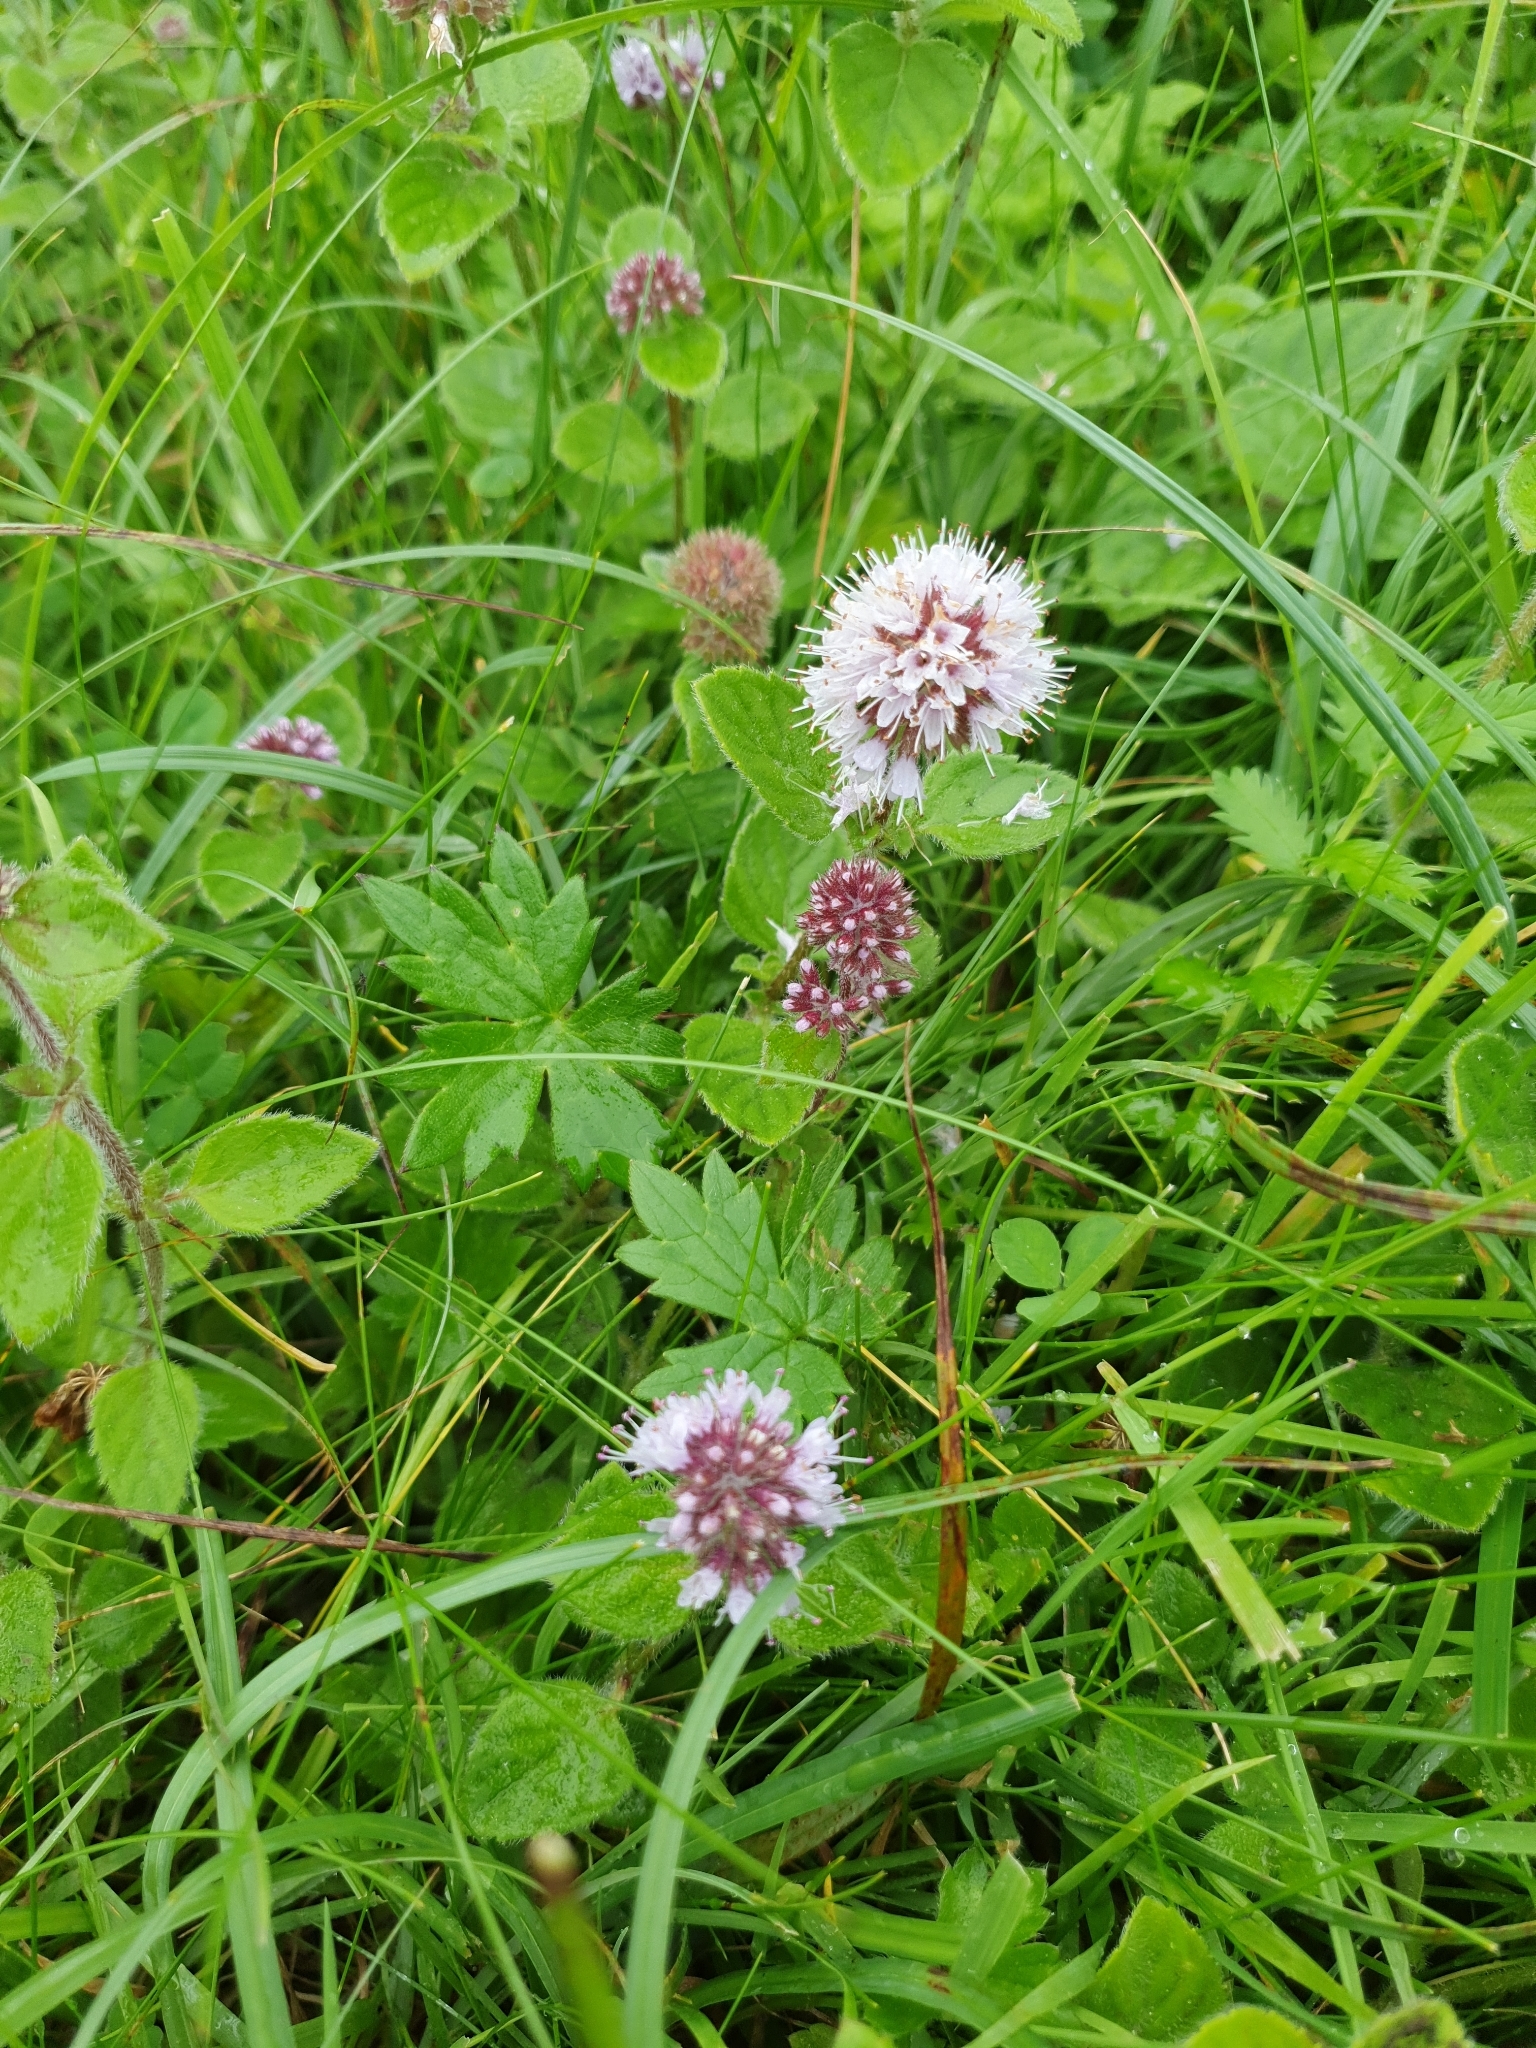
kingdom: Plantae
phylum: Tracheophyta
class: Magnoliopsida
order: Lamiales
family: Lamiaceae
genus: Mentha
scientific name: Mentha aquatica
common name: Water mint
